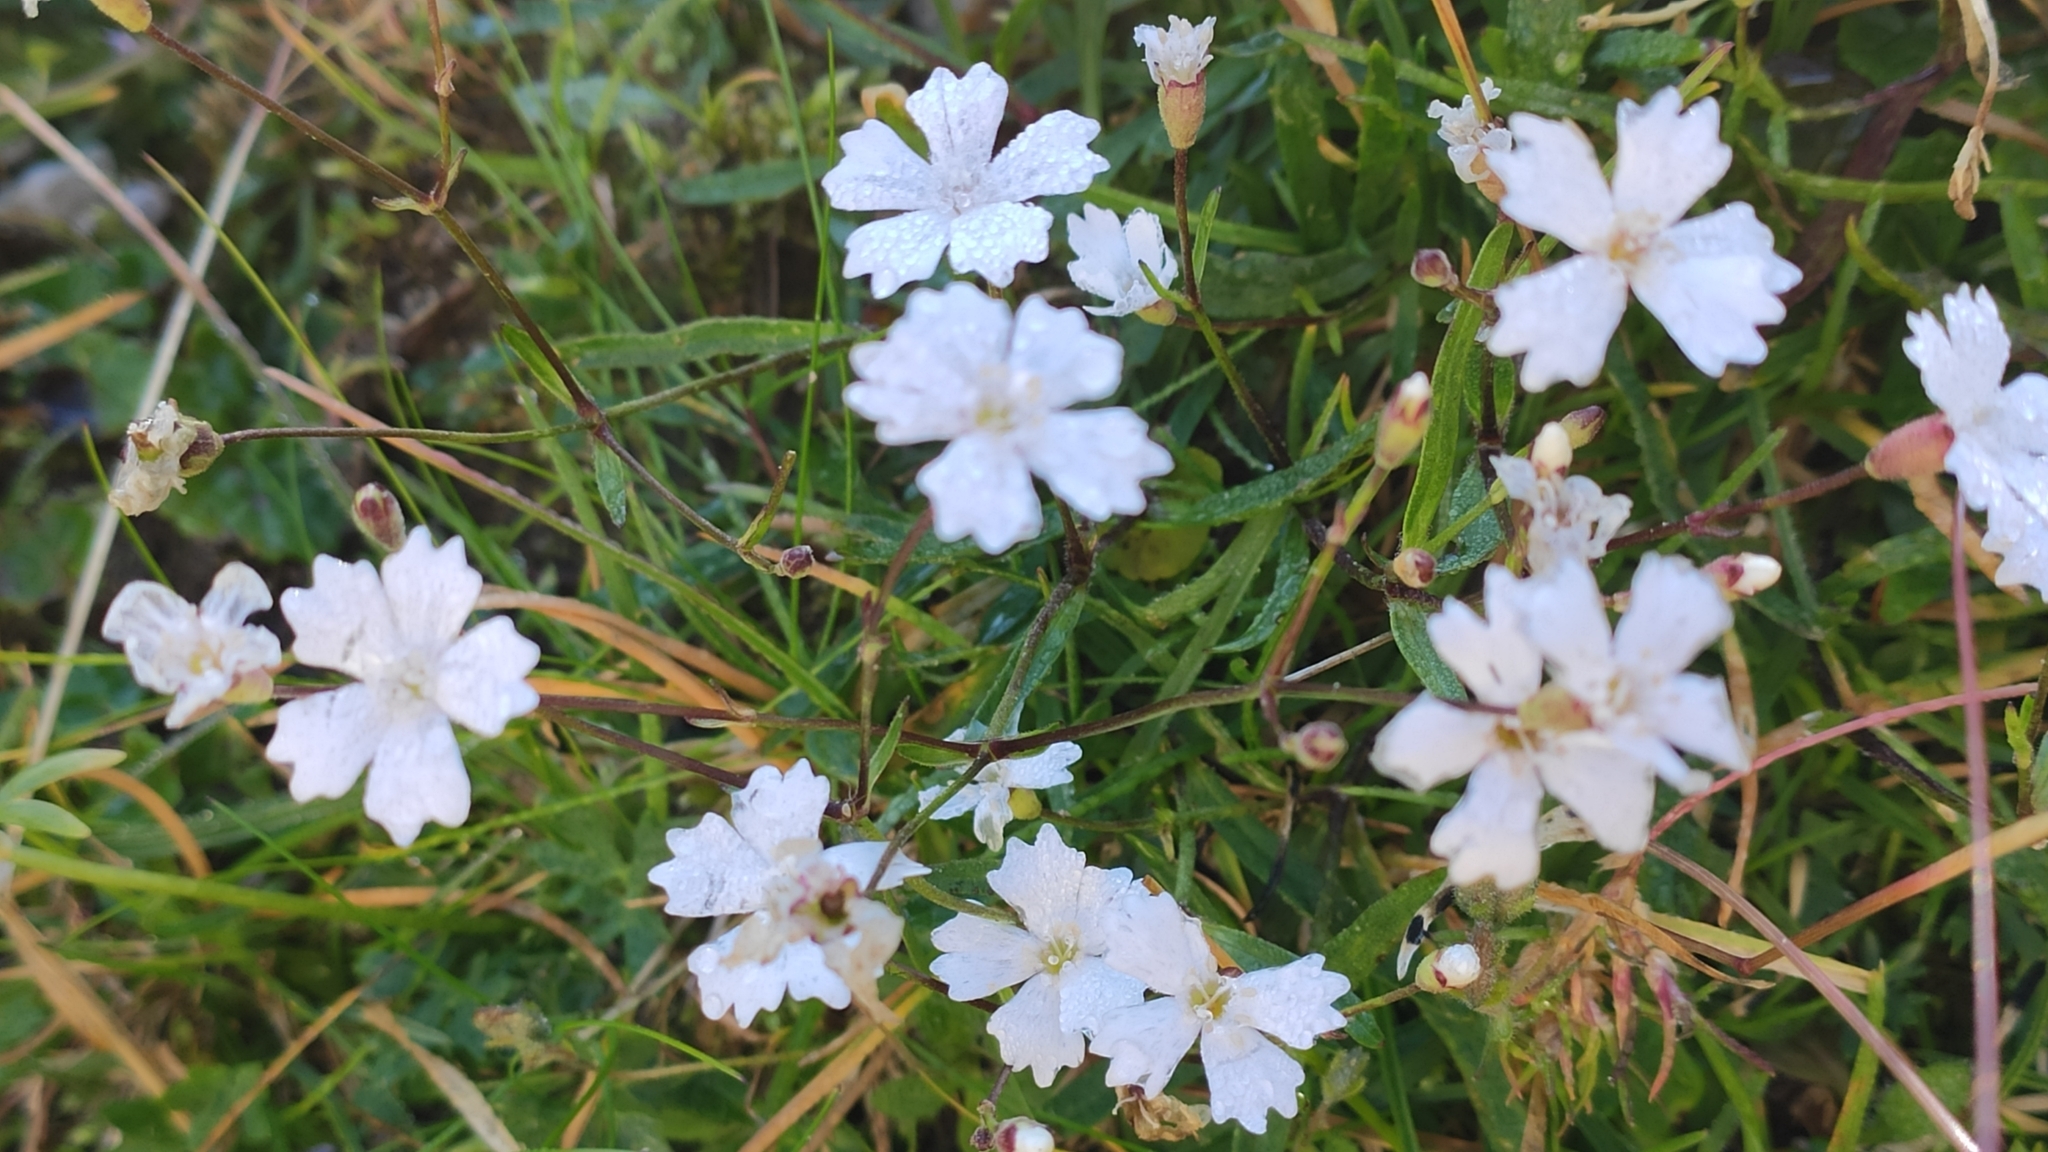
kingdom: Plantae
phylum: Tracheophyta
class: Magnoliopsida
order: Caryophyllales
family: Caryophyllaceae
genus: Heliosperma
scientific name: Heliosperma alpestre
